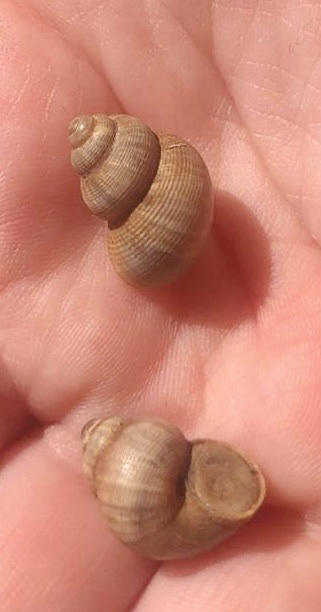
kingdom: Animalia
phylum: Mollusca
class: Gastropoda
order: Littorinimorpha
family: Pomatiidae
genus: Pomatias
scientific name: Pomatias elegans
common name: Red-mouthed snail
